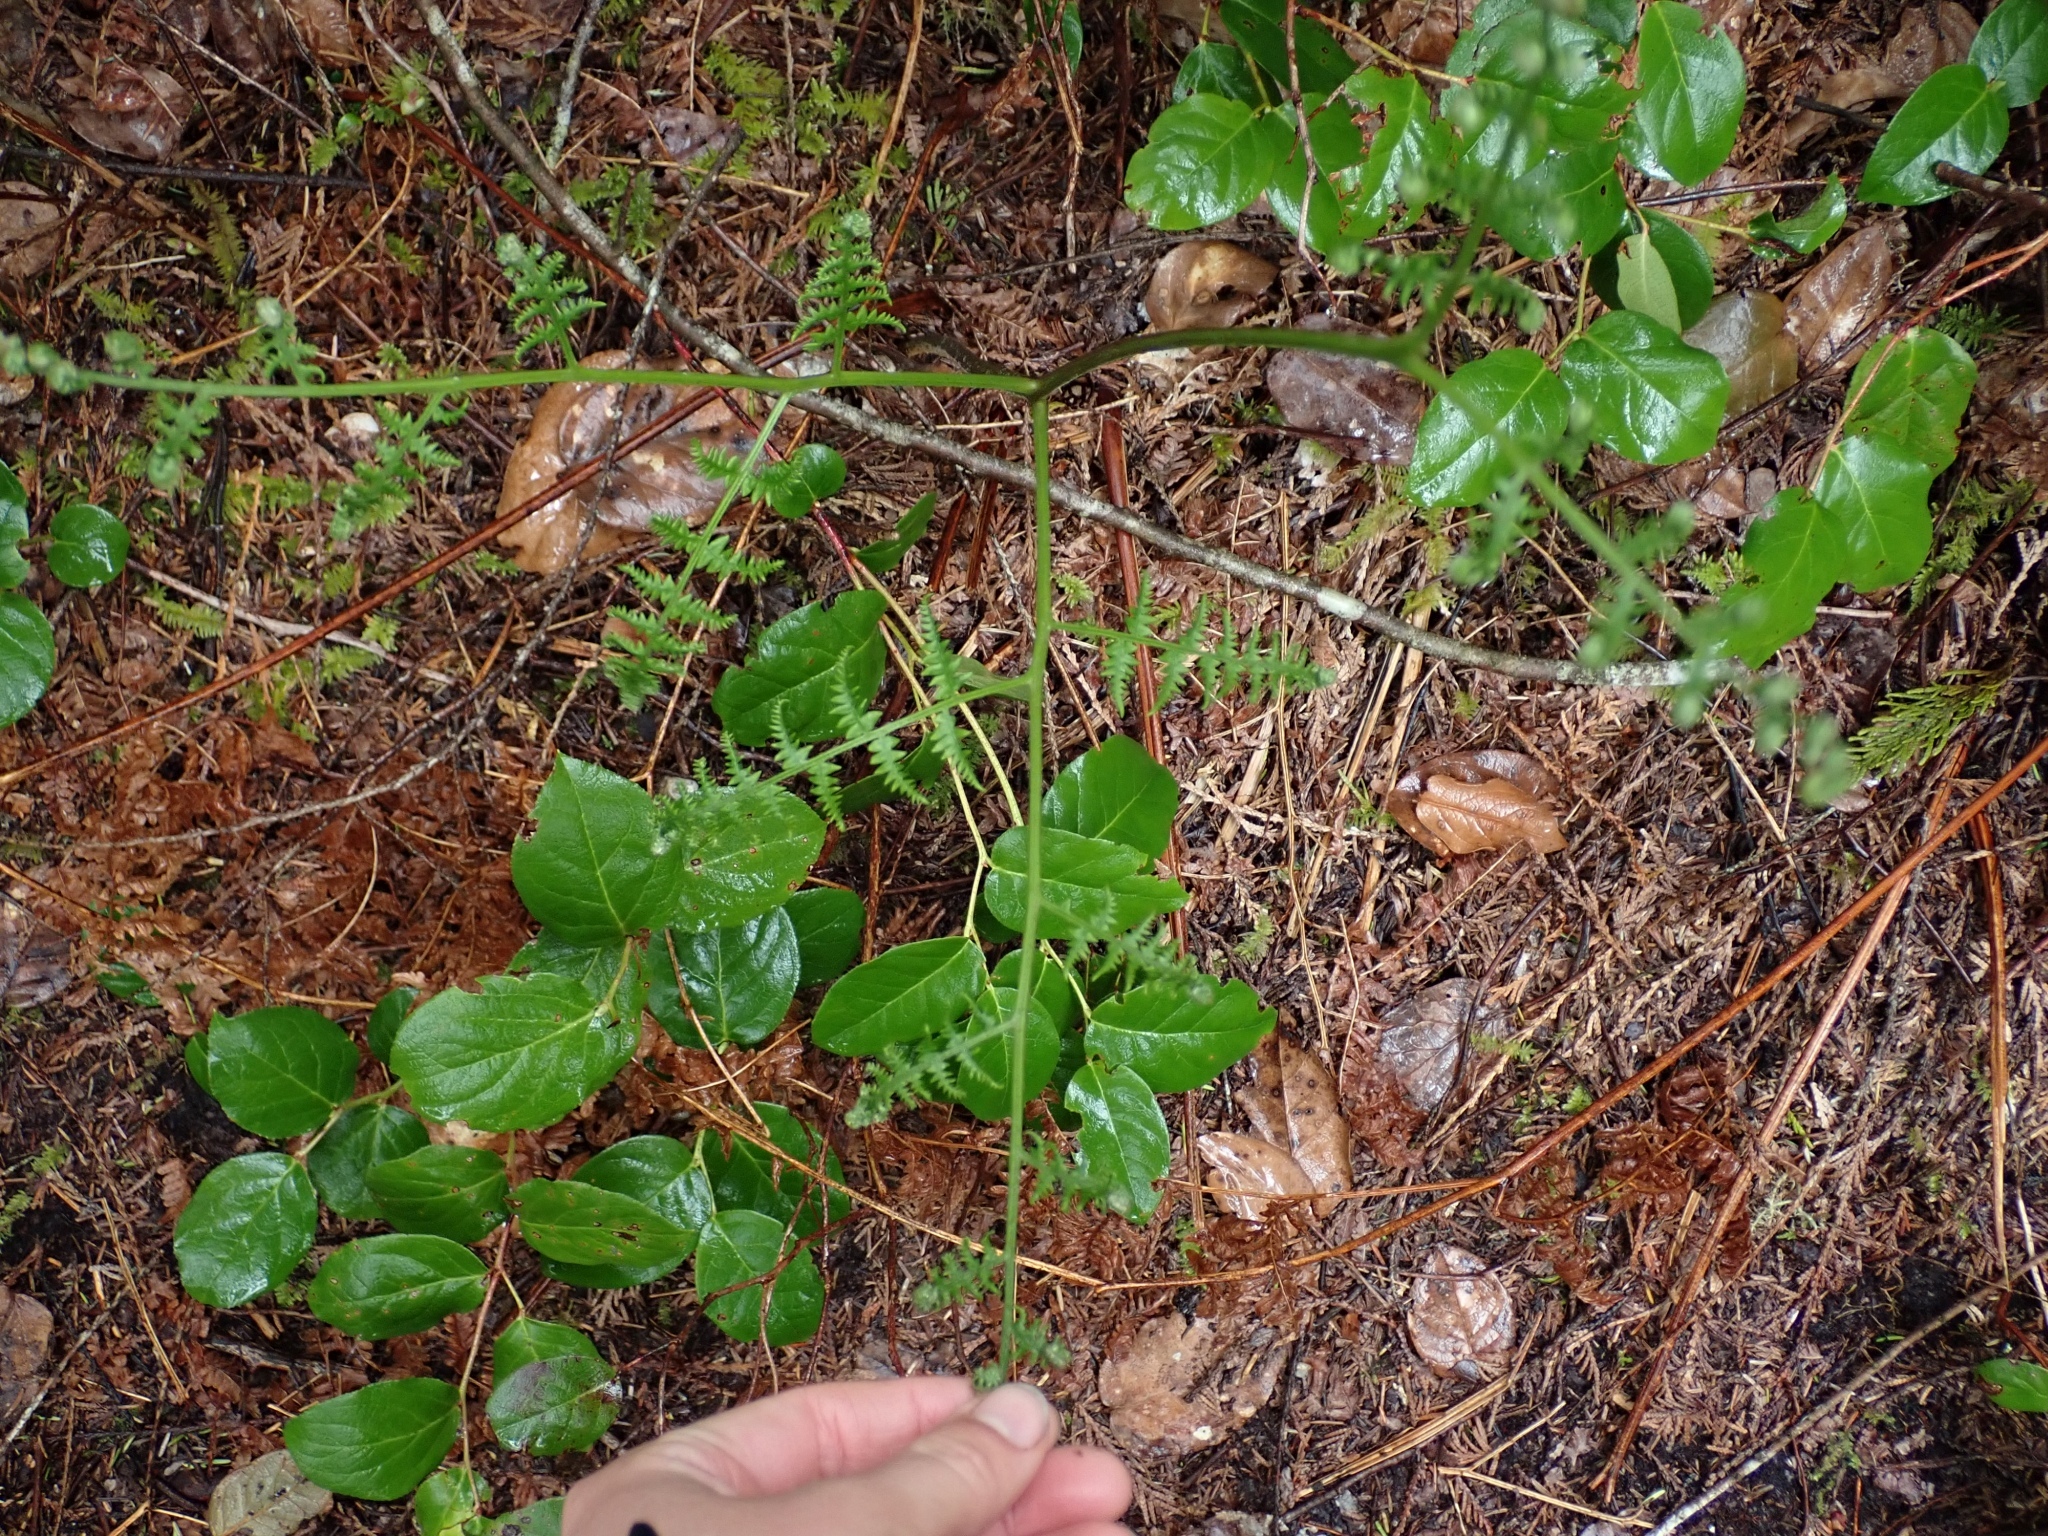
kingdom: Plantae
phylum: Tracheophyta
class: Polypodiopsida
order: Polypodiales
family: Dennstaedtiaceae
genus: Pteridium
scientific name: Pteridium aquilinum
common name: Bracken
